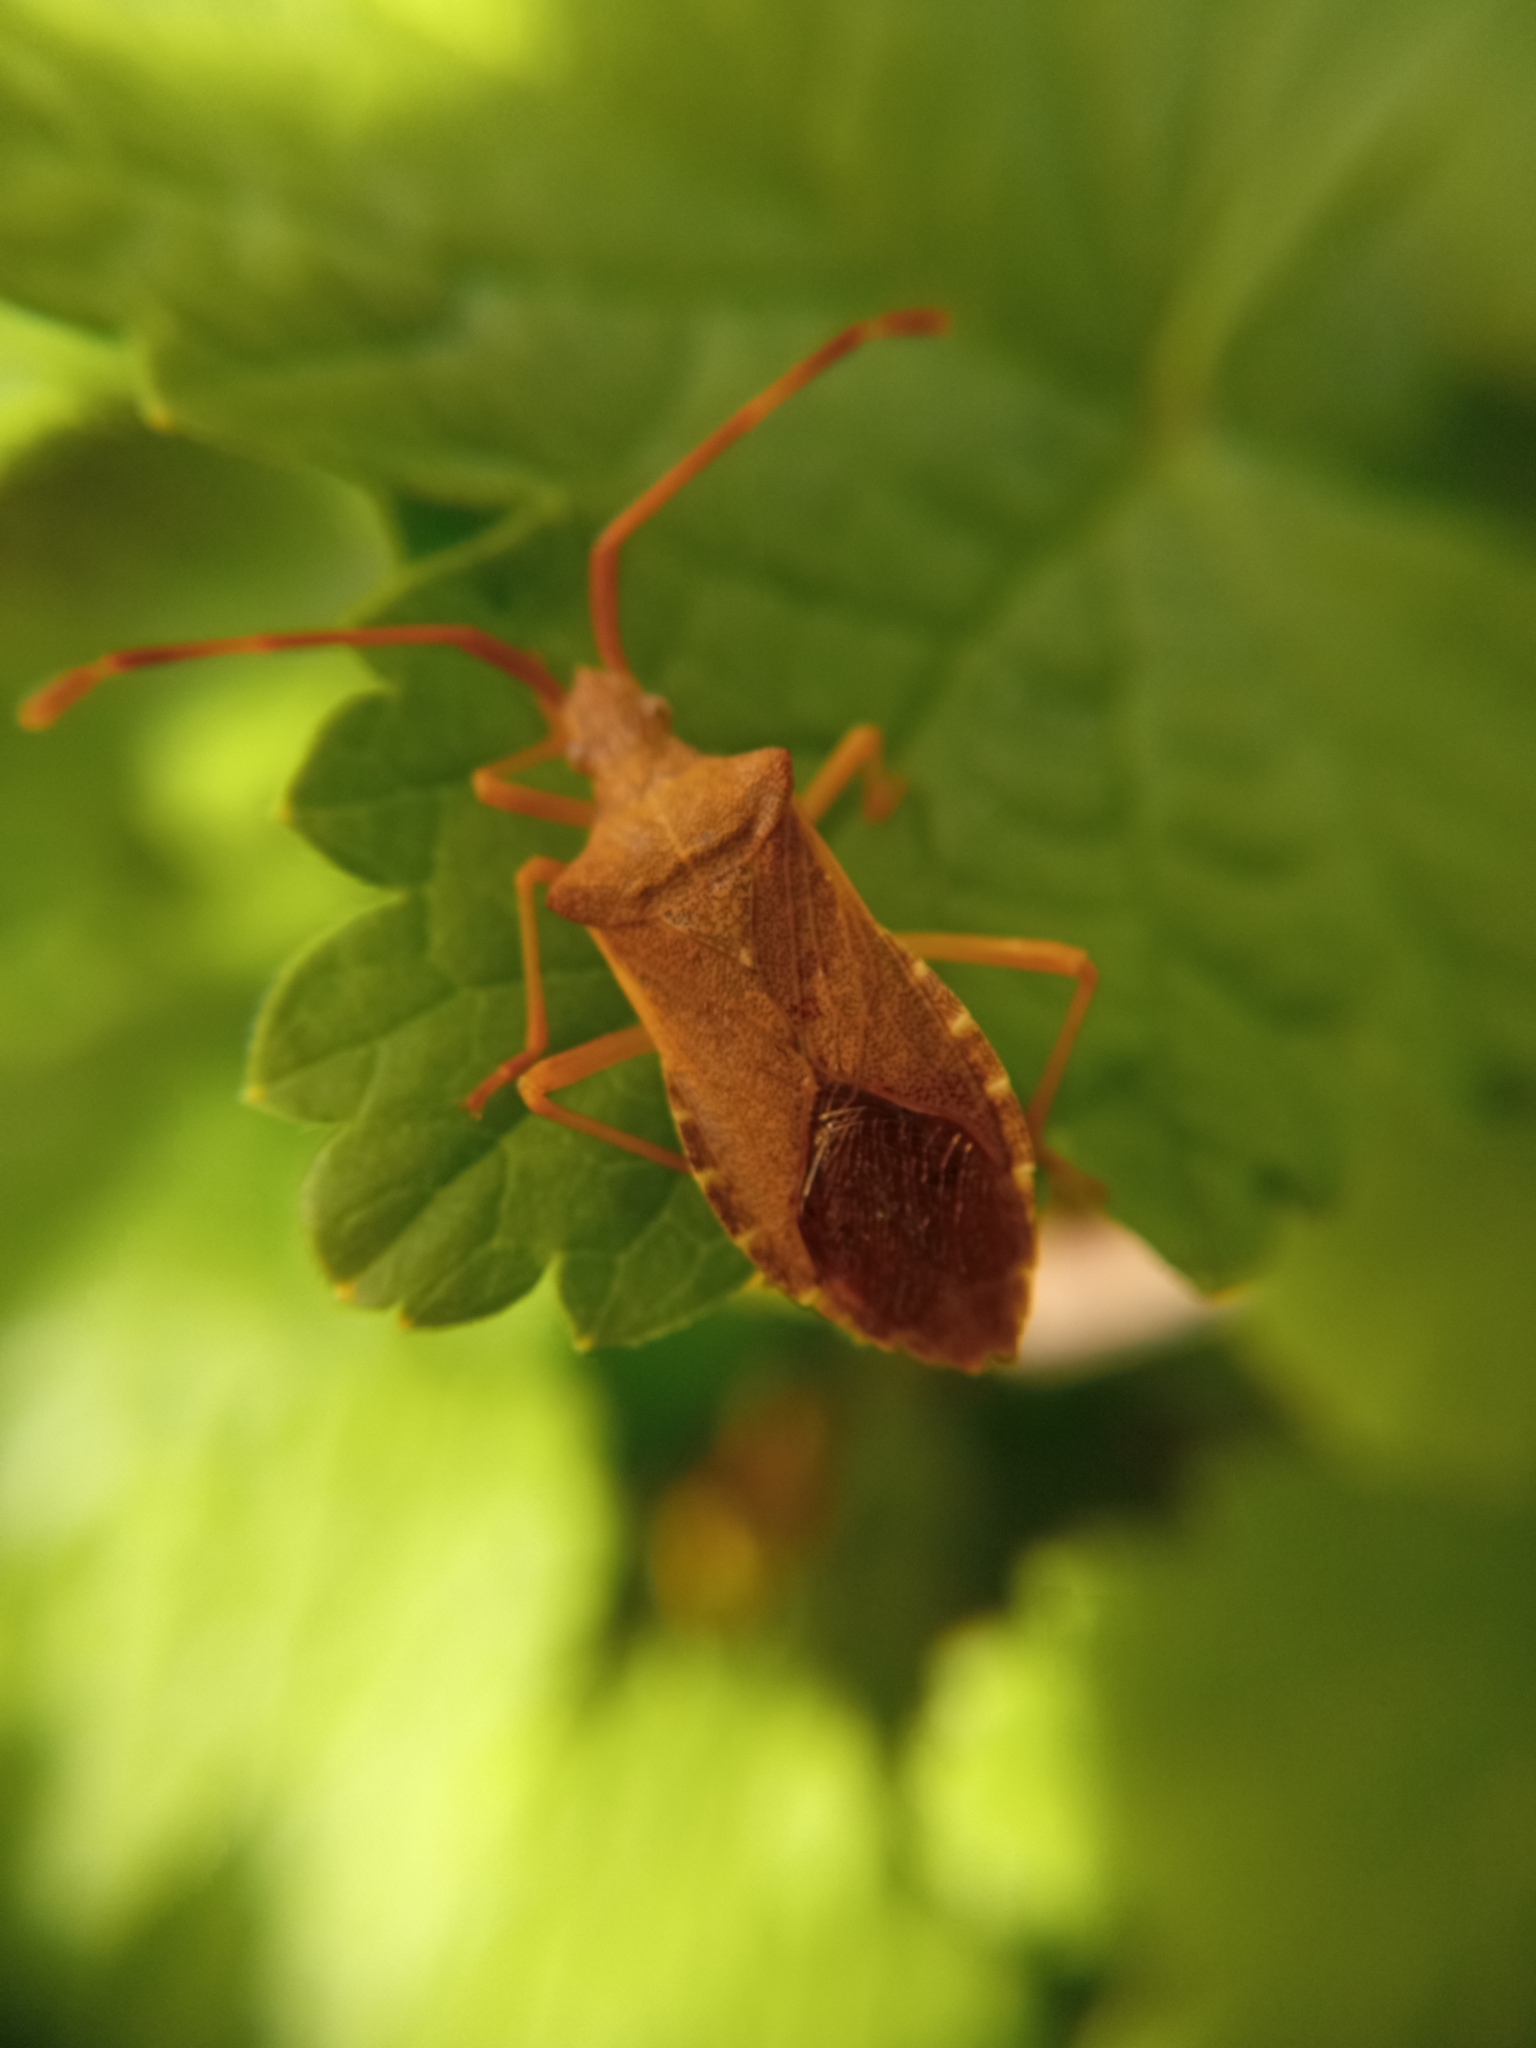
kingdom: Animalia
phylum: Arthropoda
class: Insecta
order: Hemiptera
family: Coreidae
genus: Gonocerus
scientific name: Gonocerus acuteangulatus
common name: Box bug
